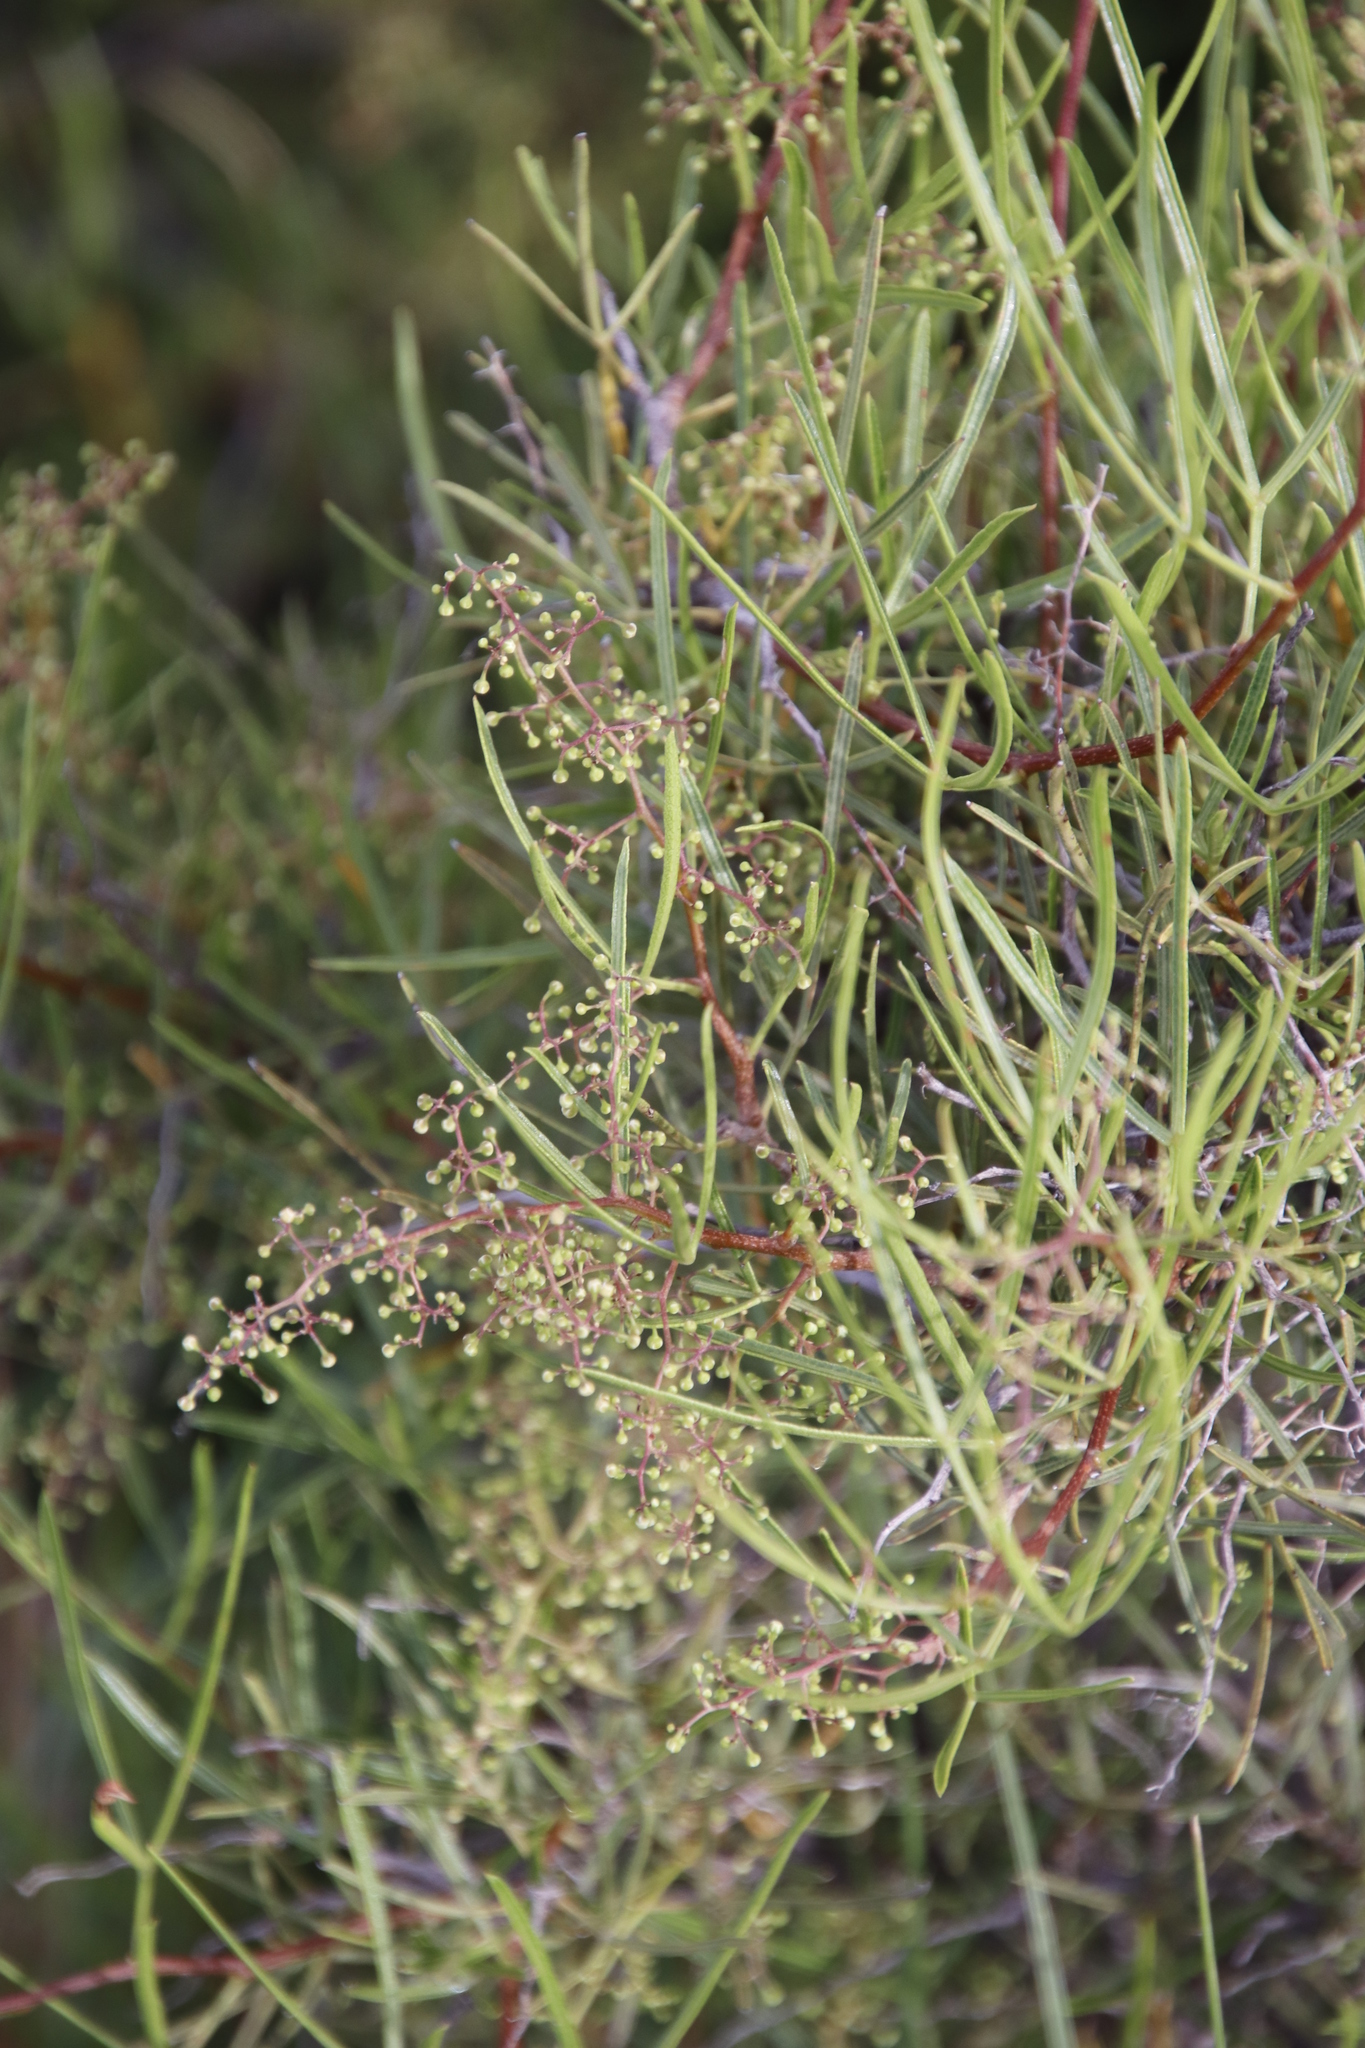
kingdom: Plantae
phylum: Tracheophyta
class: Magnoliopsida
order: Sapindales
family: Anacardiaceae
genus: Searsia
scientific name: Searsia dregeana
